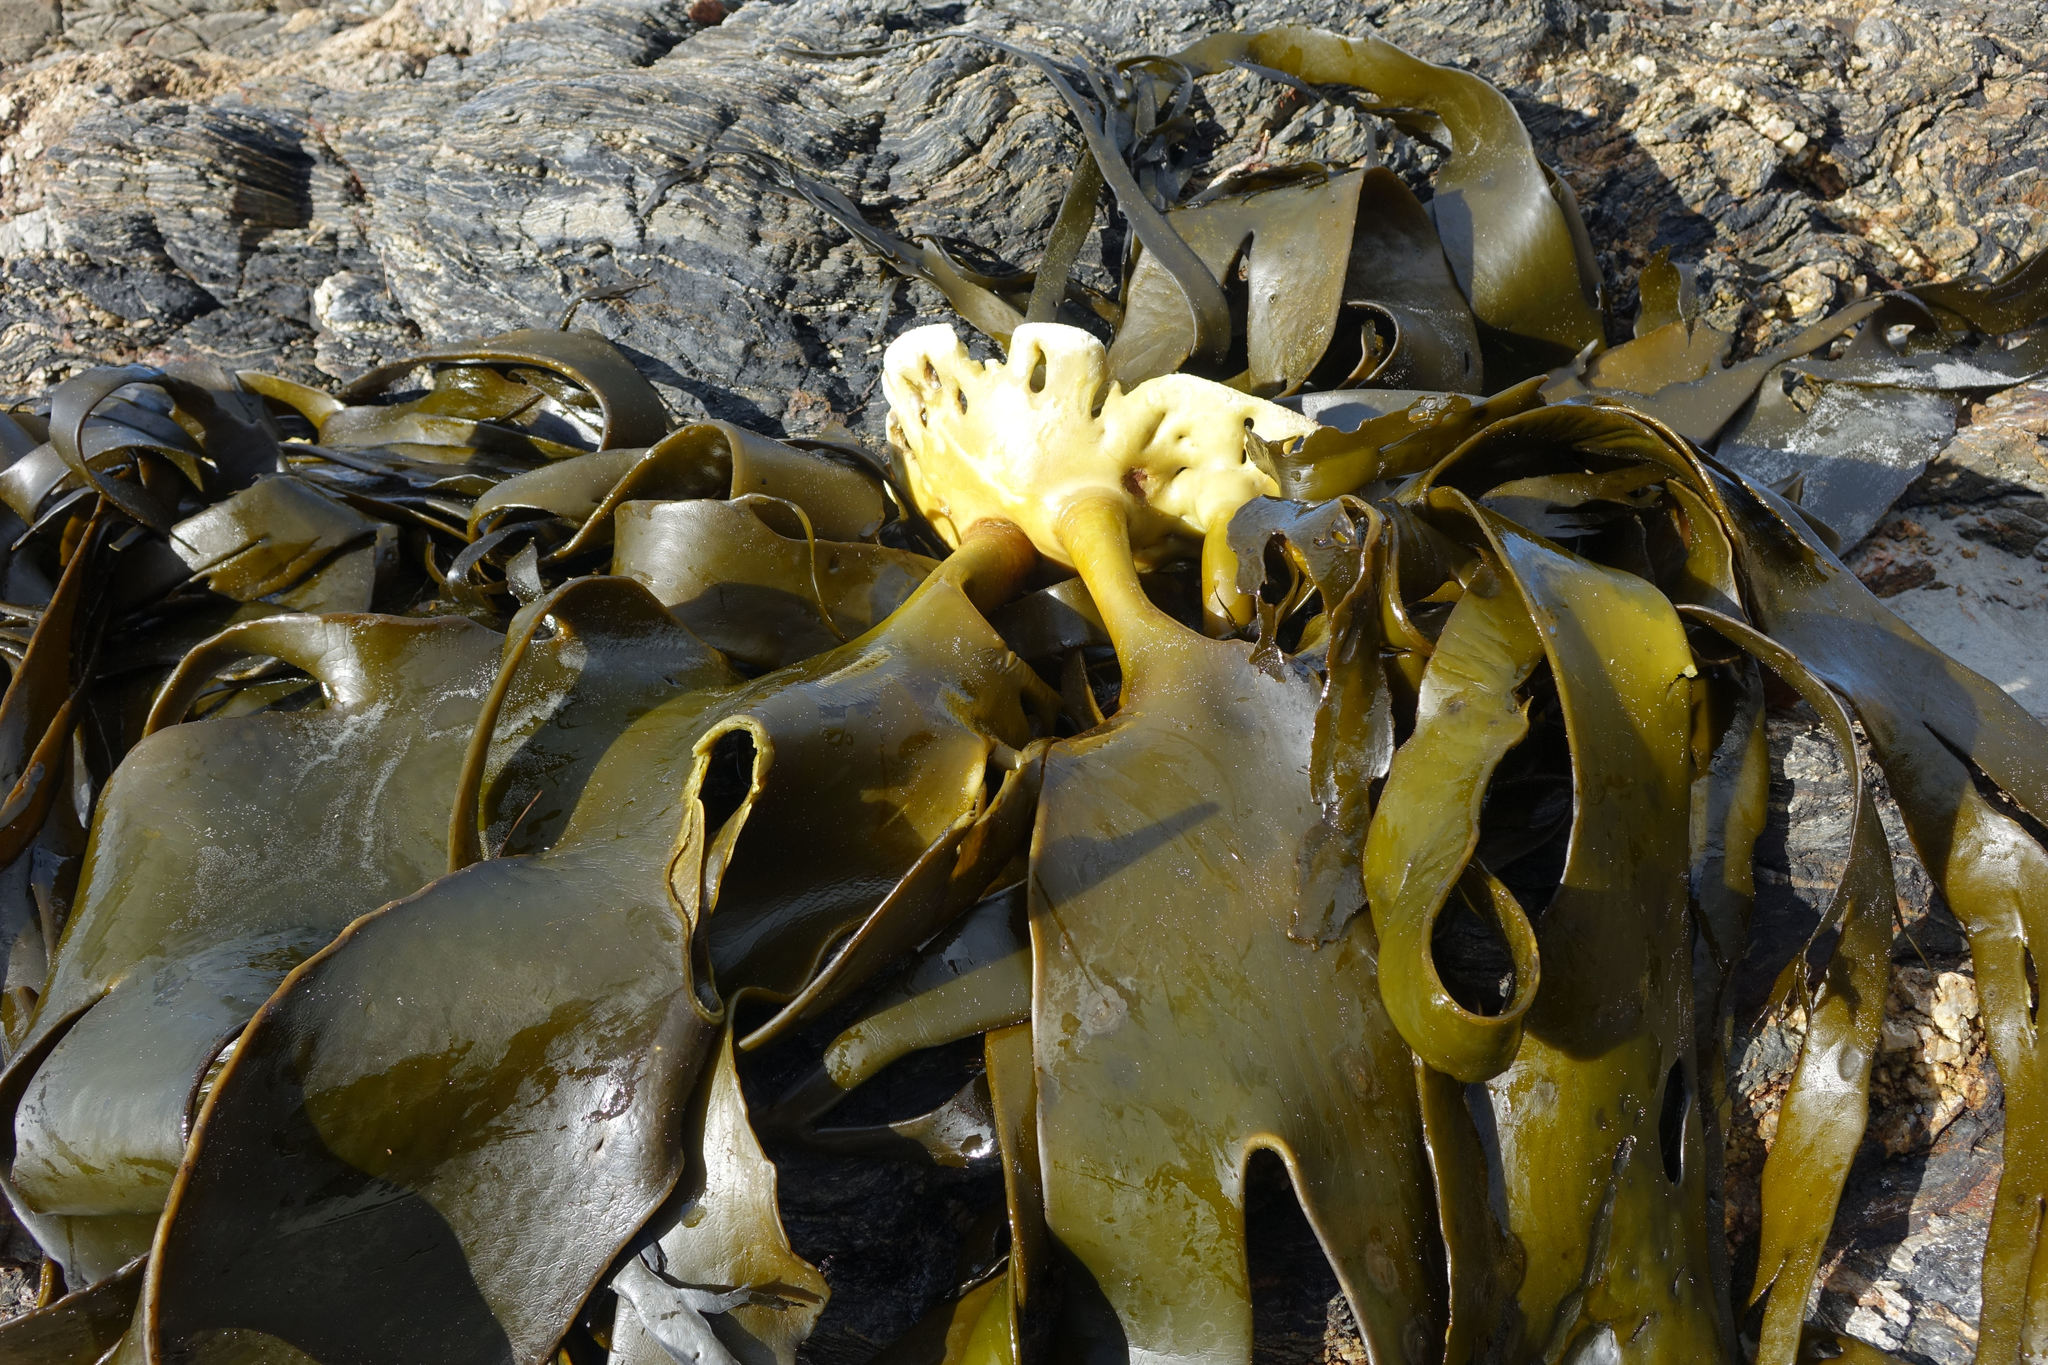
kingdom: Chromista
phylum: Ochrophyta
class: Phaeophyceae
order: Fucales
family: Durvillaeaceae
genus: Durvillaea
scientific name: Durvillaea antarctica
